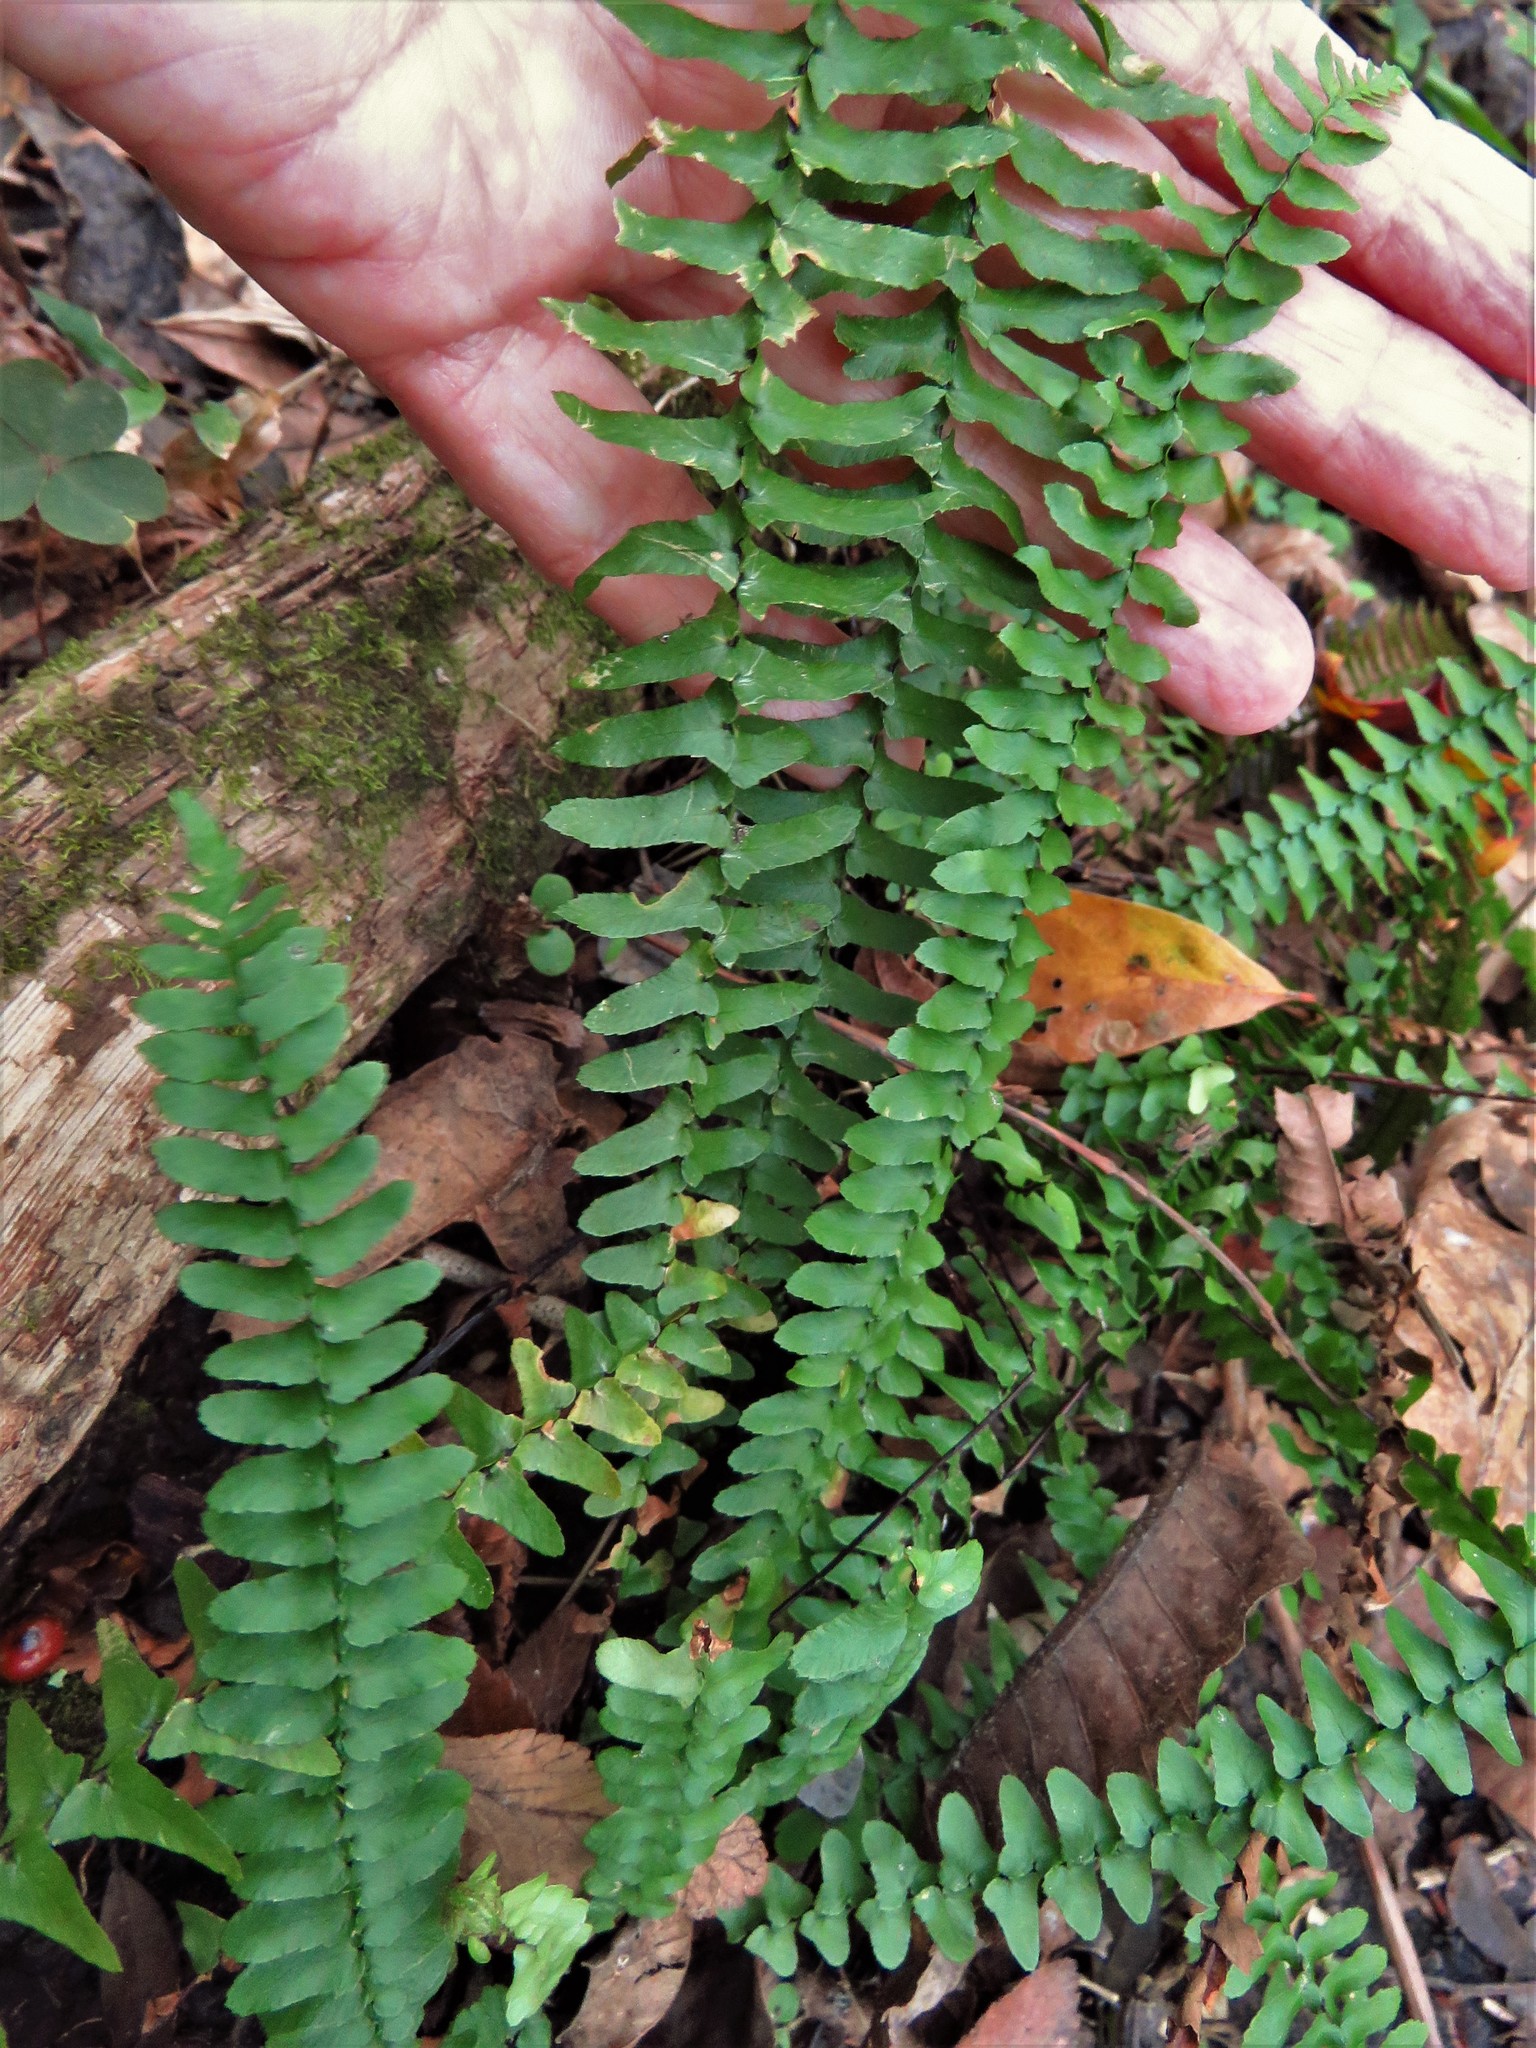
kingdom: Plantae
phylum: Tracheophyta
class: Polypodiopsida
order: Polypodiales
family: Aspleniaceae
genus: Asplenium
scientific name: Asplenium platyneuron
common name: Ebony spleenwort
